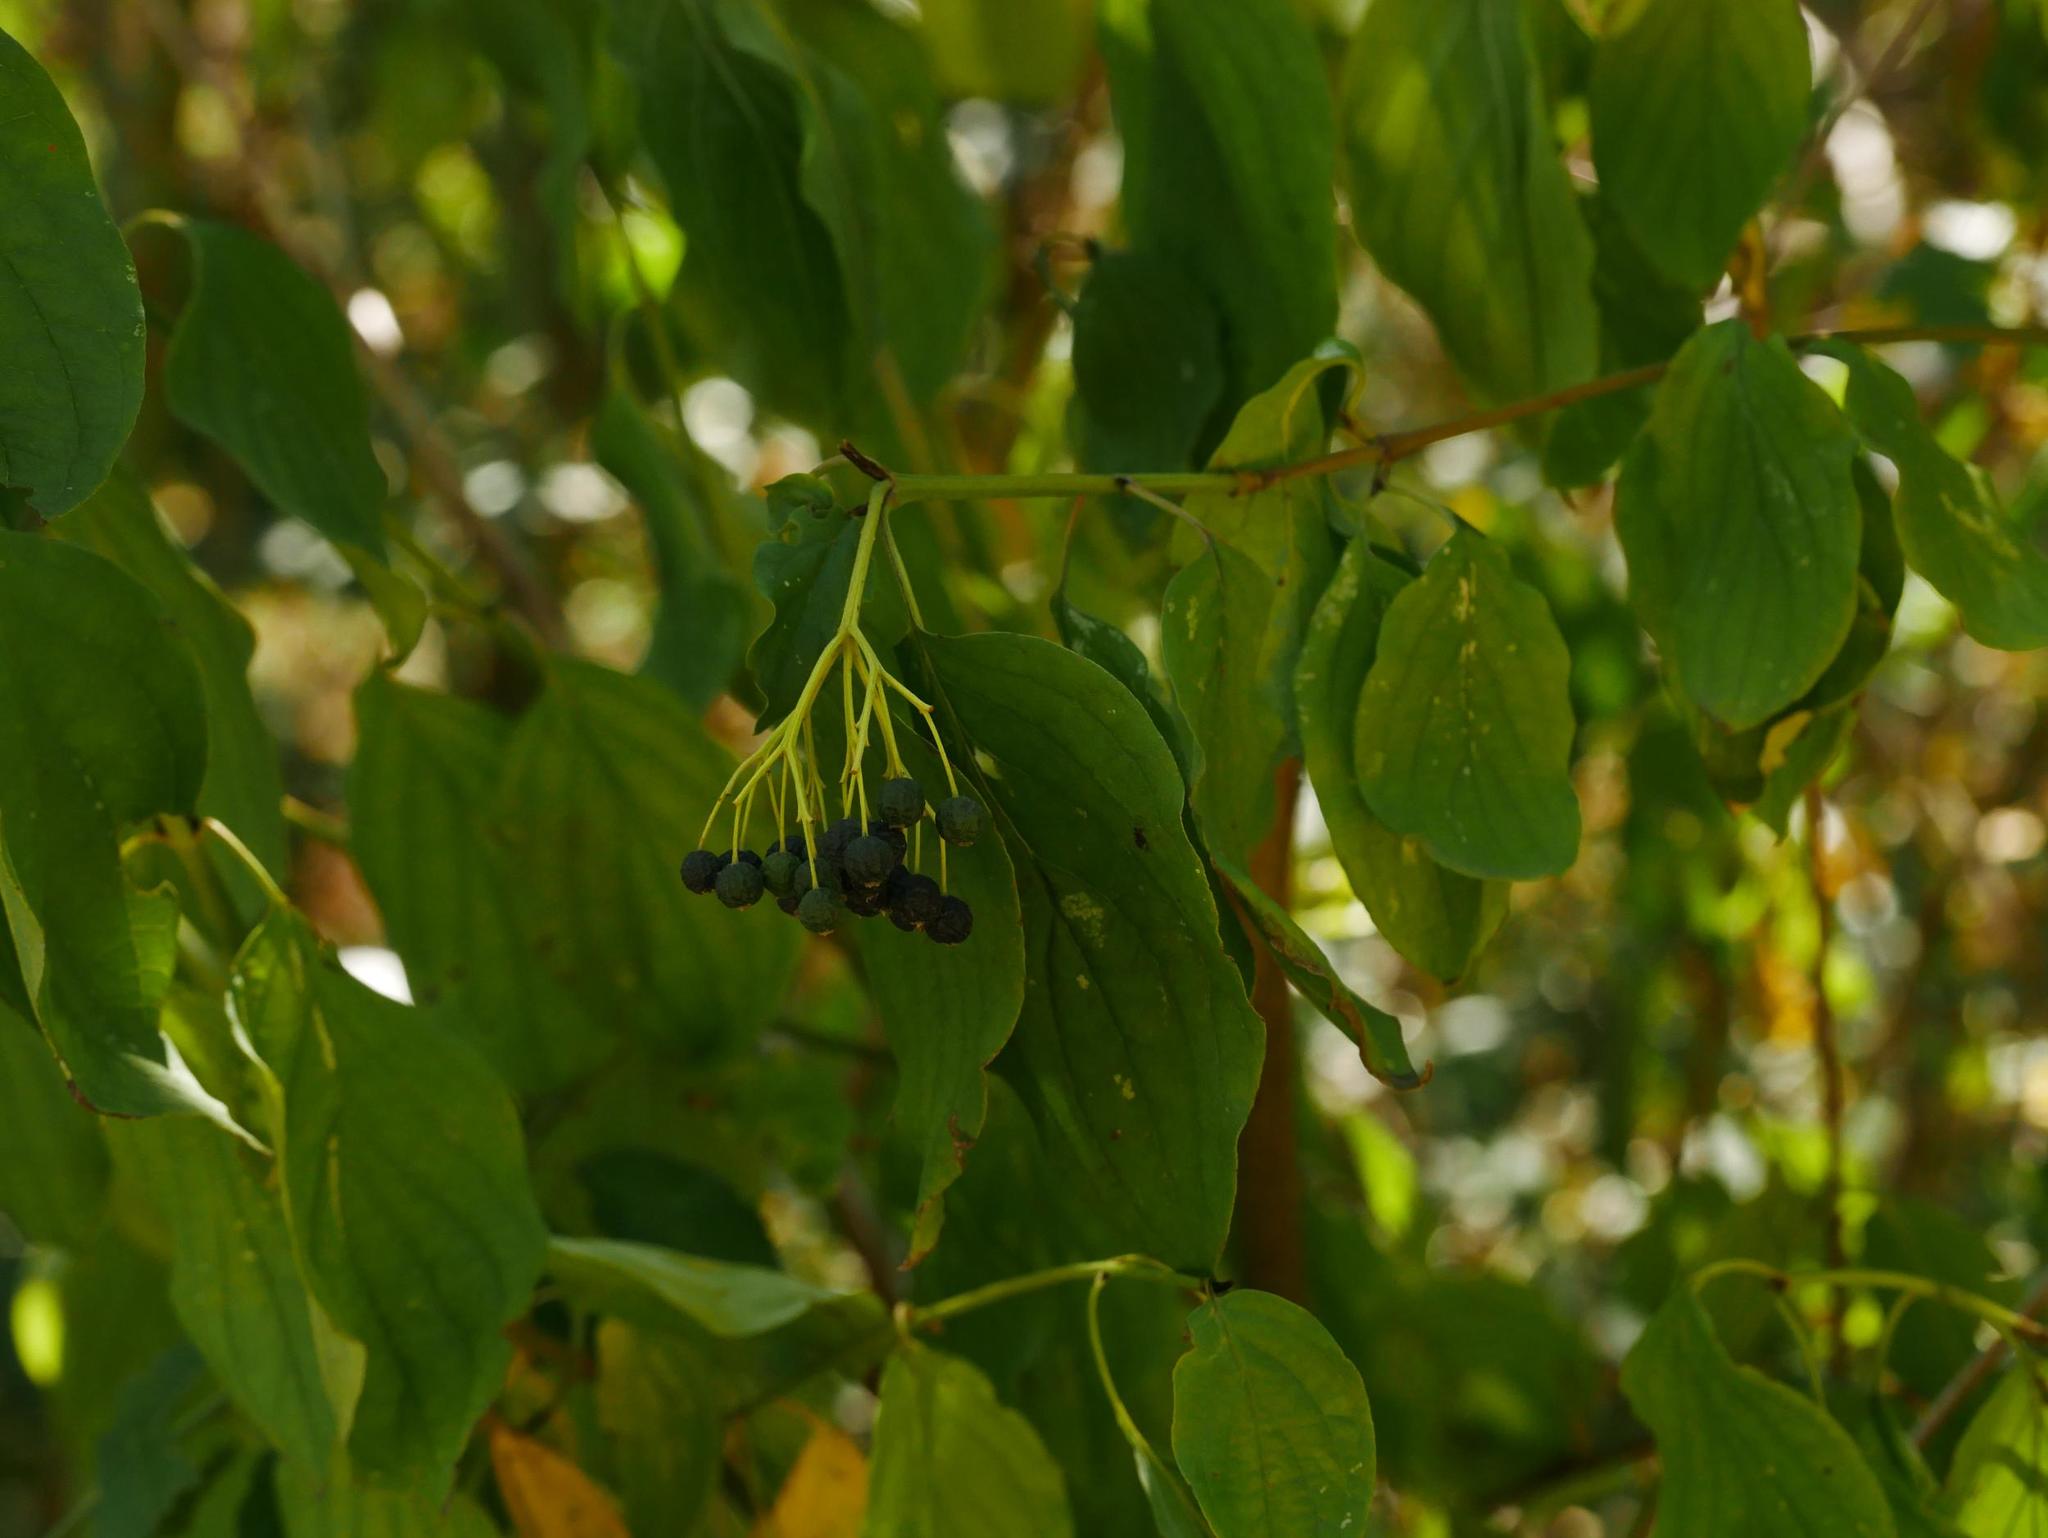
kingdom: Plantae
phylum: Tracheophyta
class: Magnoliopsida
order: Cornales
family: Cornaceae
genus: Cornus
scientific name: Cornus sanguinea
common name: Dogwood
